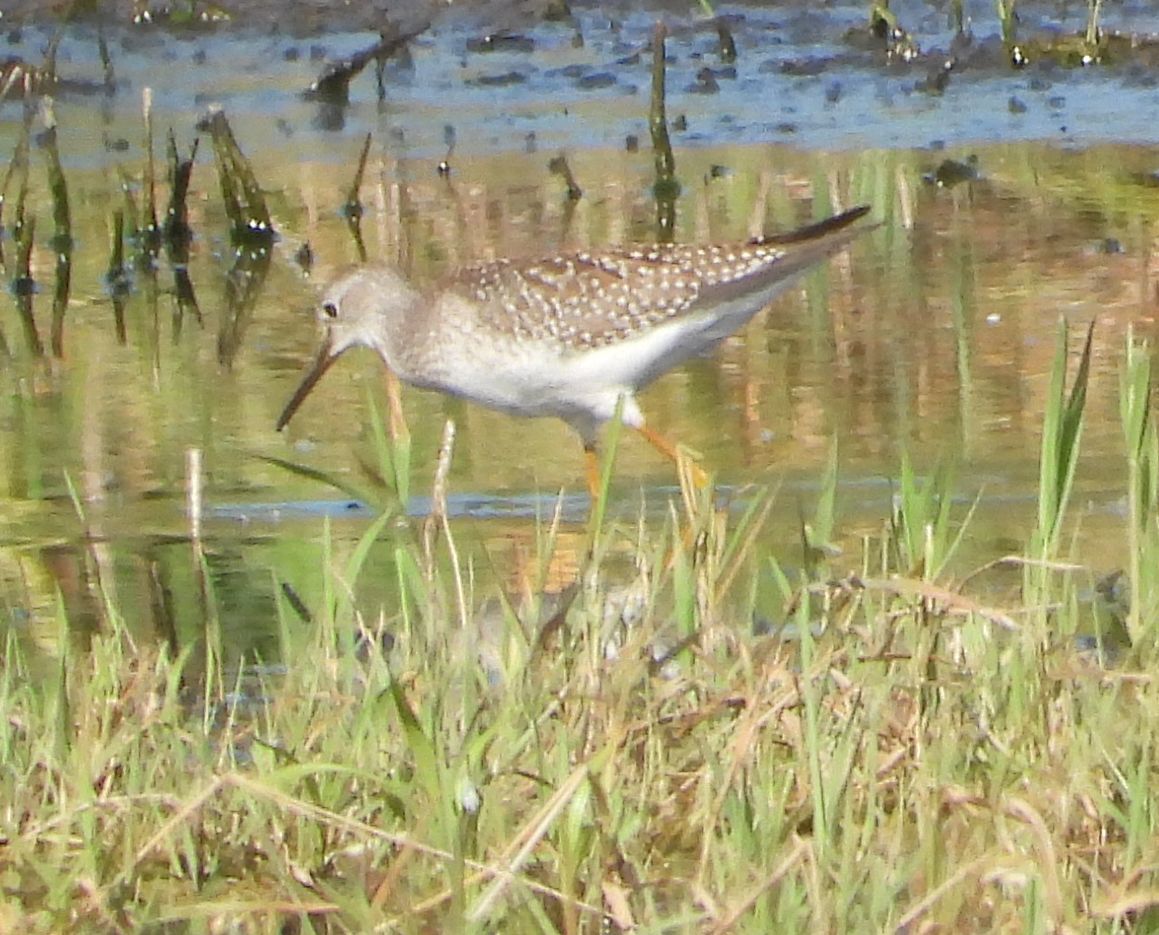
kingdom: Animalia
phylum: Chordata
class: Aves
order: Charadriiformes
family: Scolopacidae
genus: Tringa
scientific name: Tringa flavipes
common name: Lesser yellowlegs
